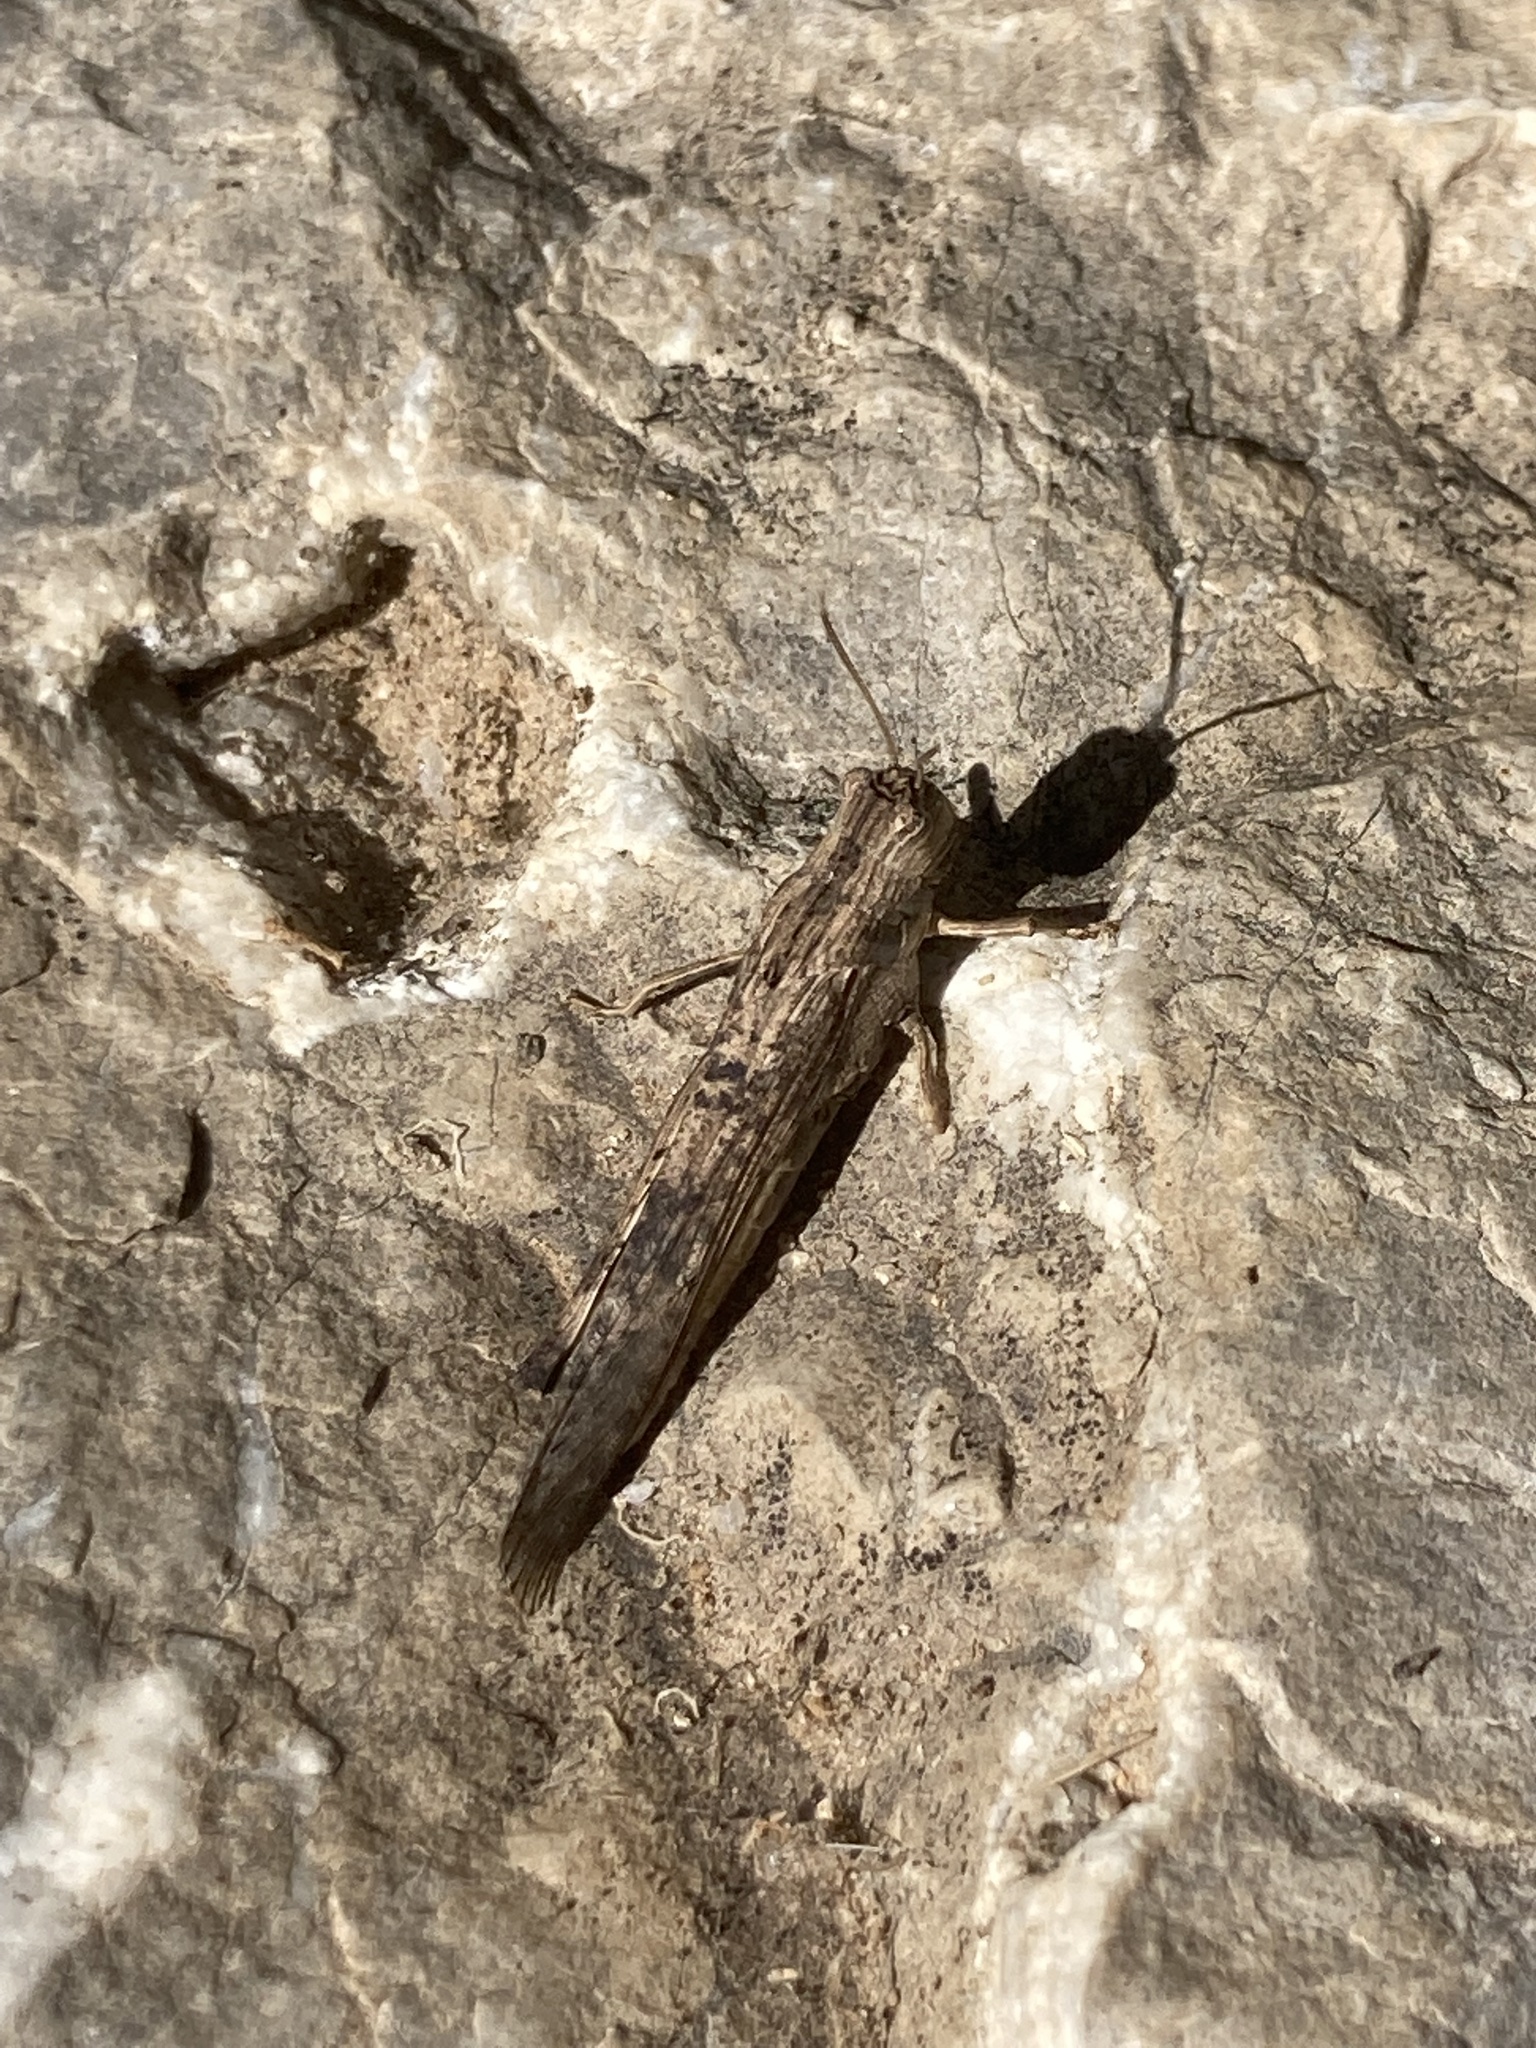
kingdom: Animalia
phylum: Arthropoda
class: Insecta
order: Orthoptera
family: Acrididae
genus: Morphacris
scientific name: Morphacris fasciata
